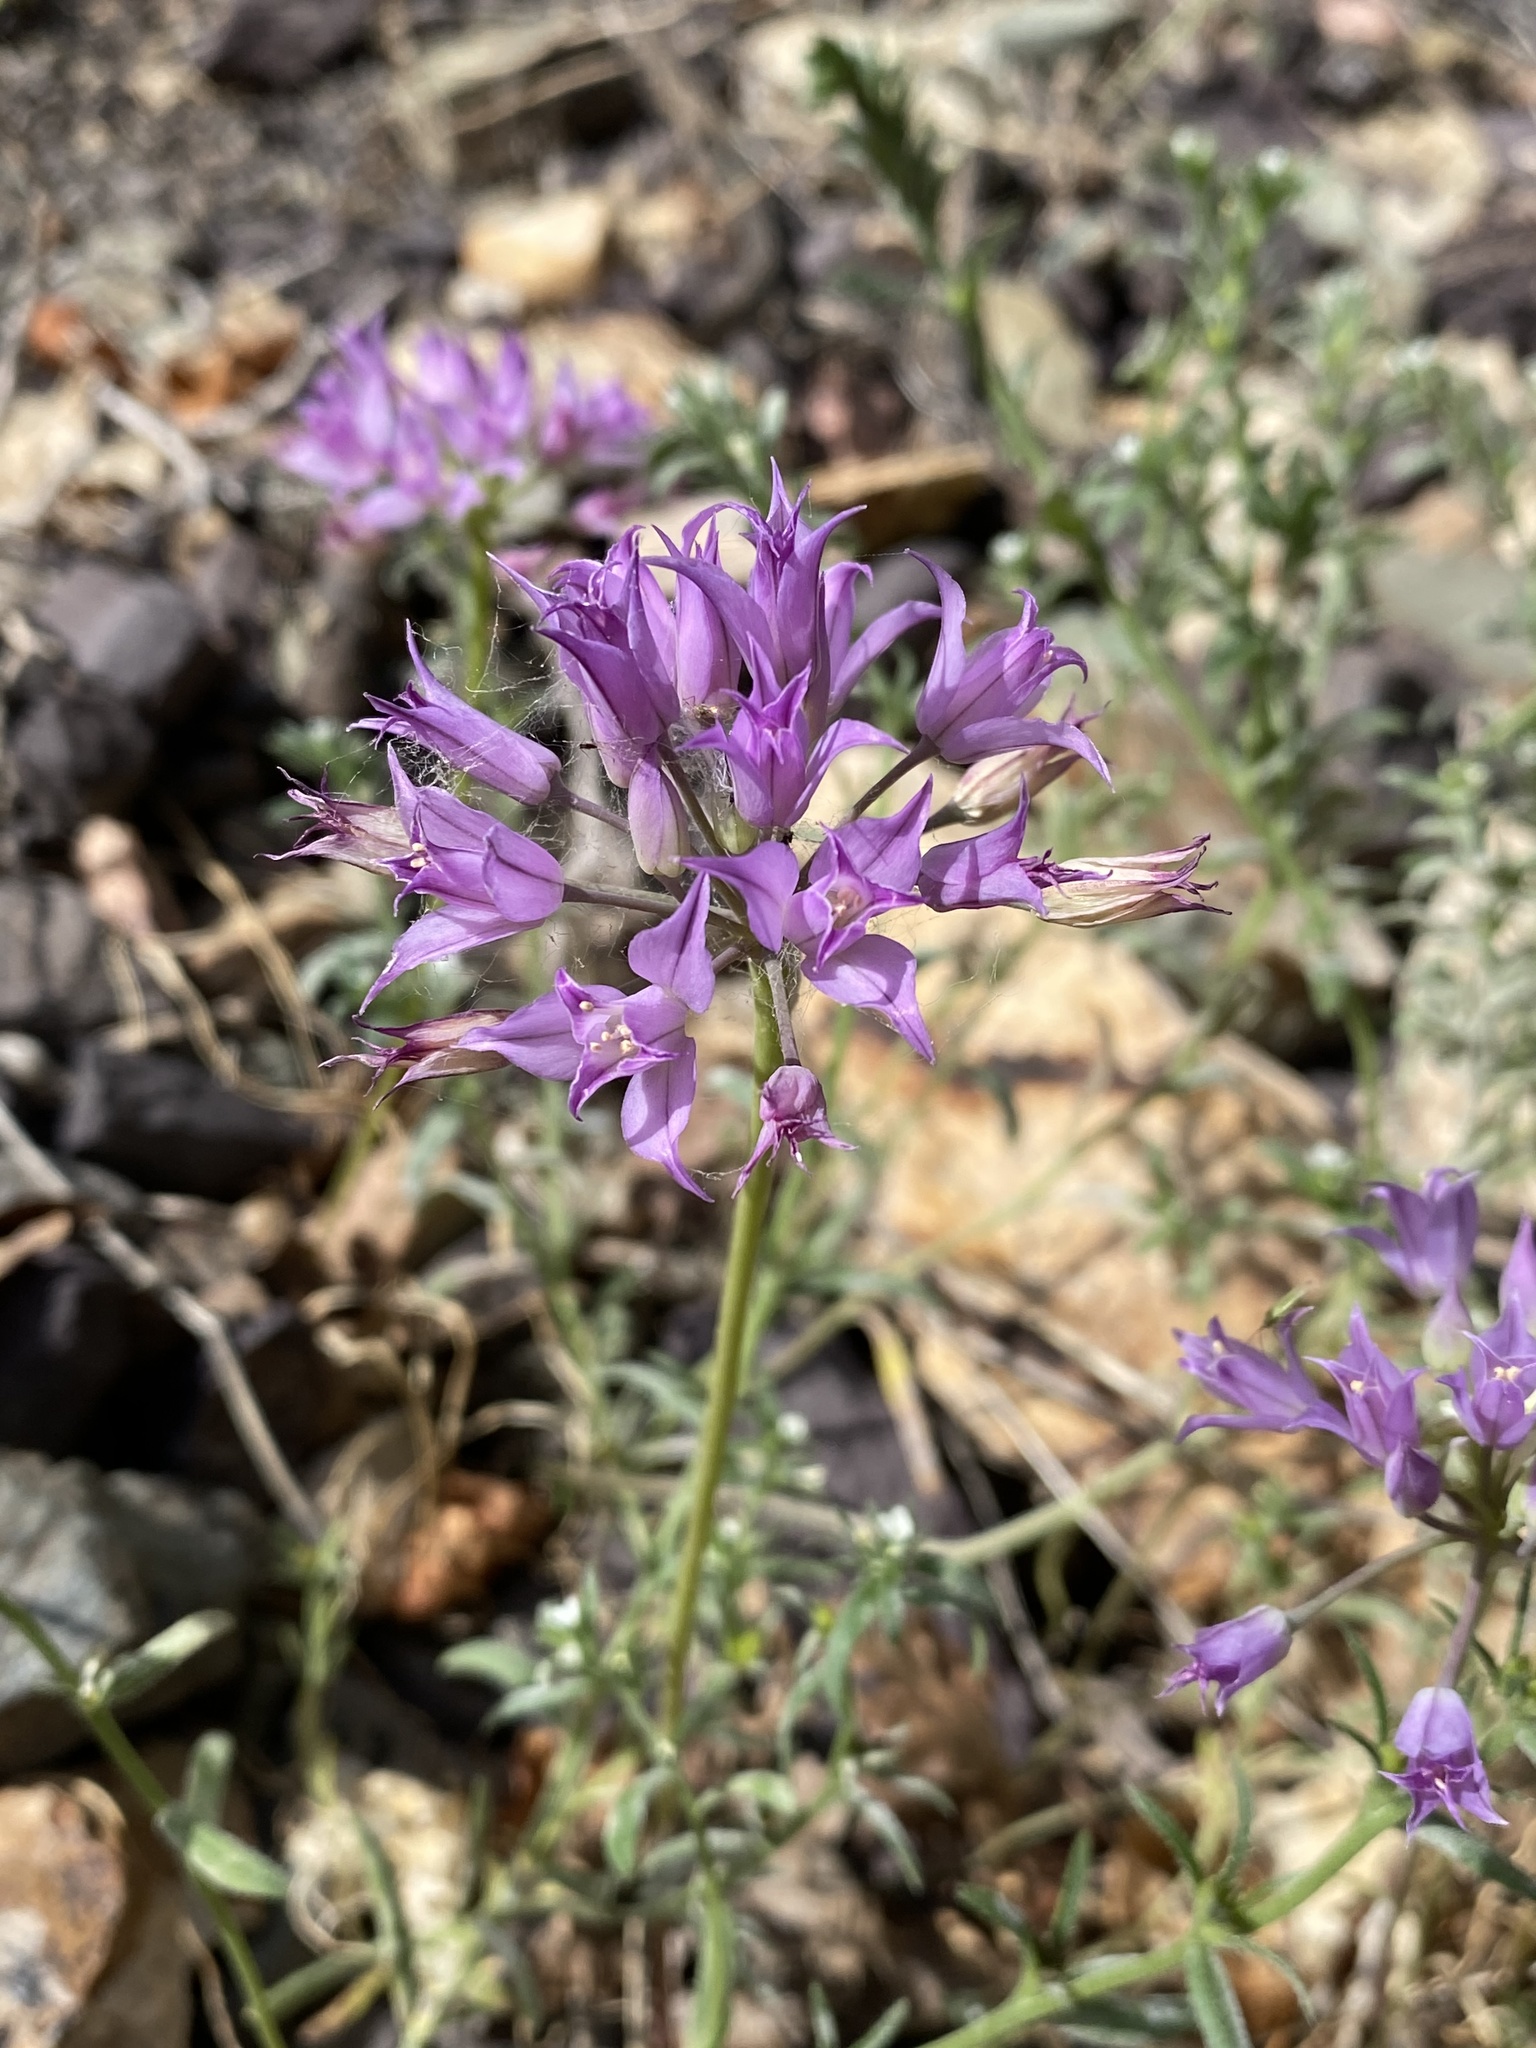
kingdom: Plantae
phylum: Tracheophyta
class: Liliopsida
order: Asparagales
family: Amaryllidaceae
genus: Allium
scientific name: Allium acuminatum
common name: Hooker's onion
